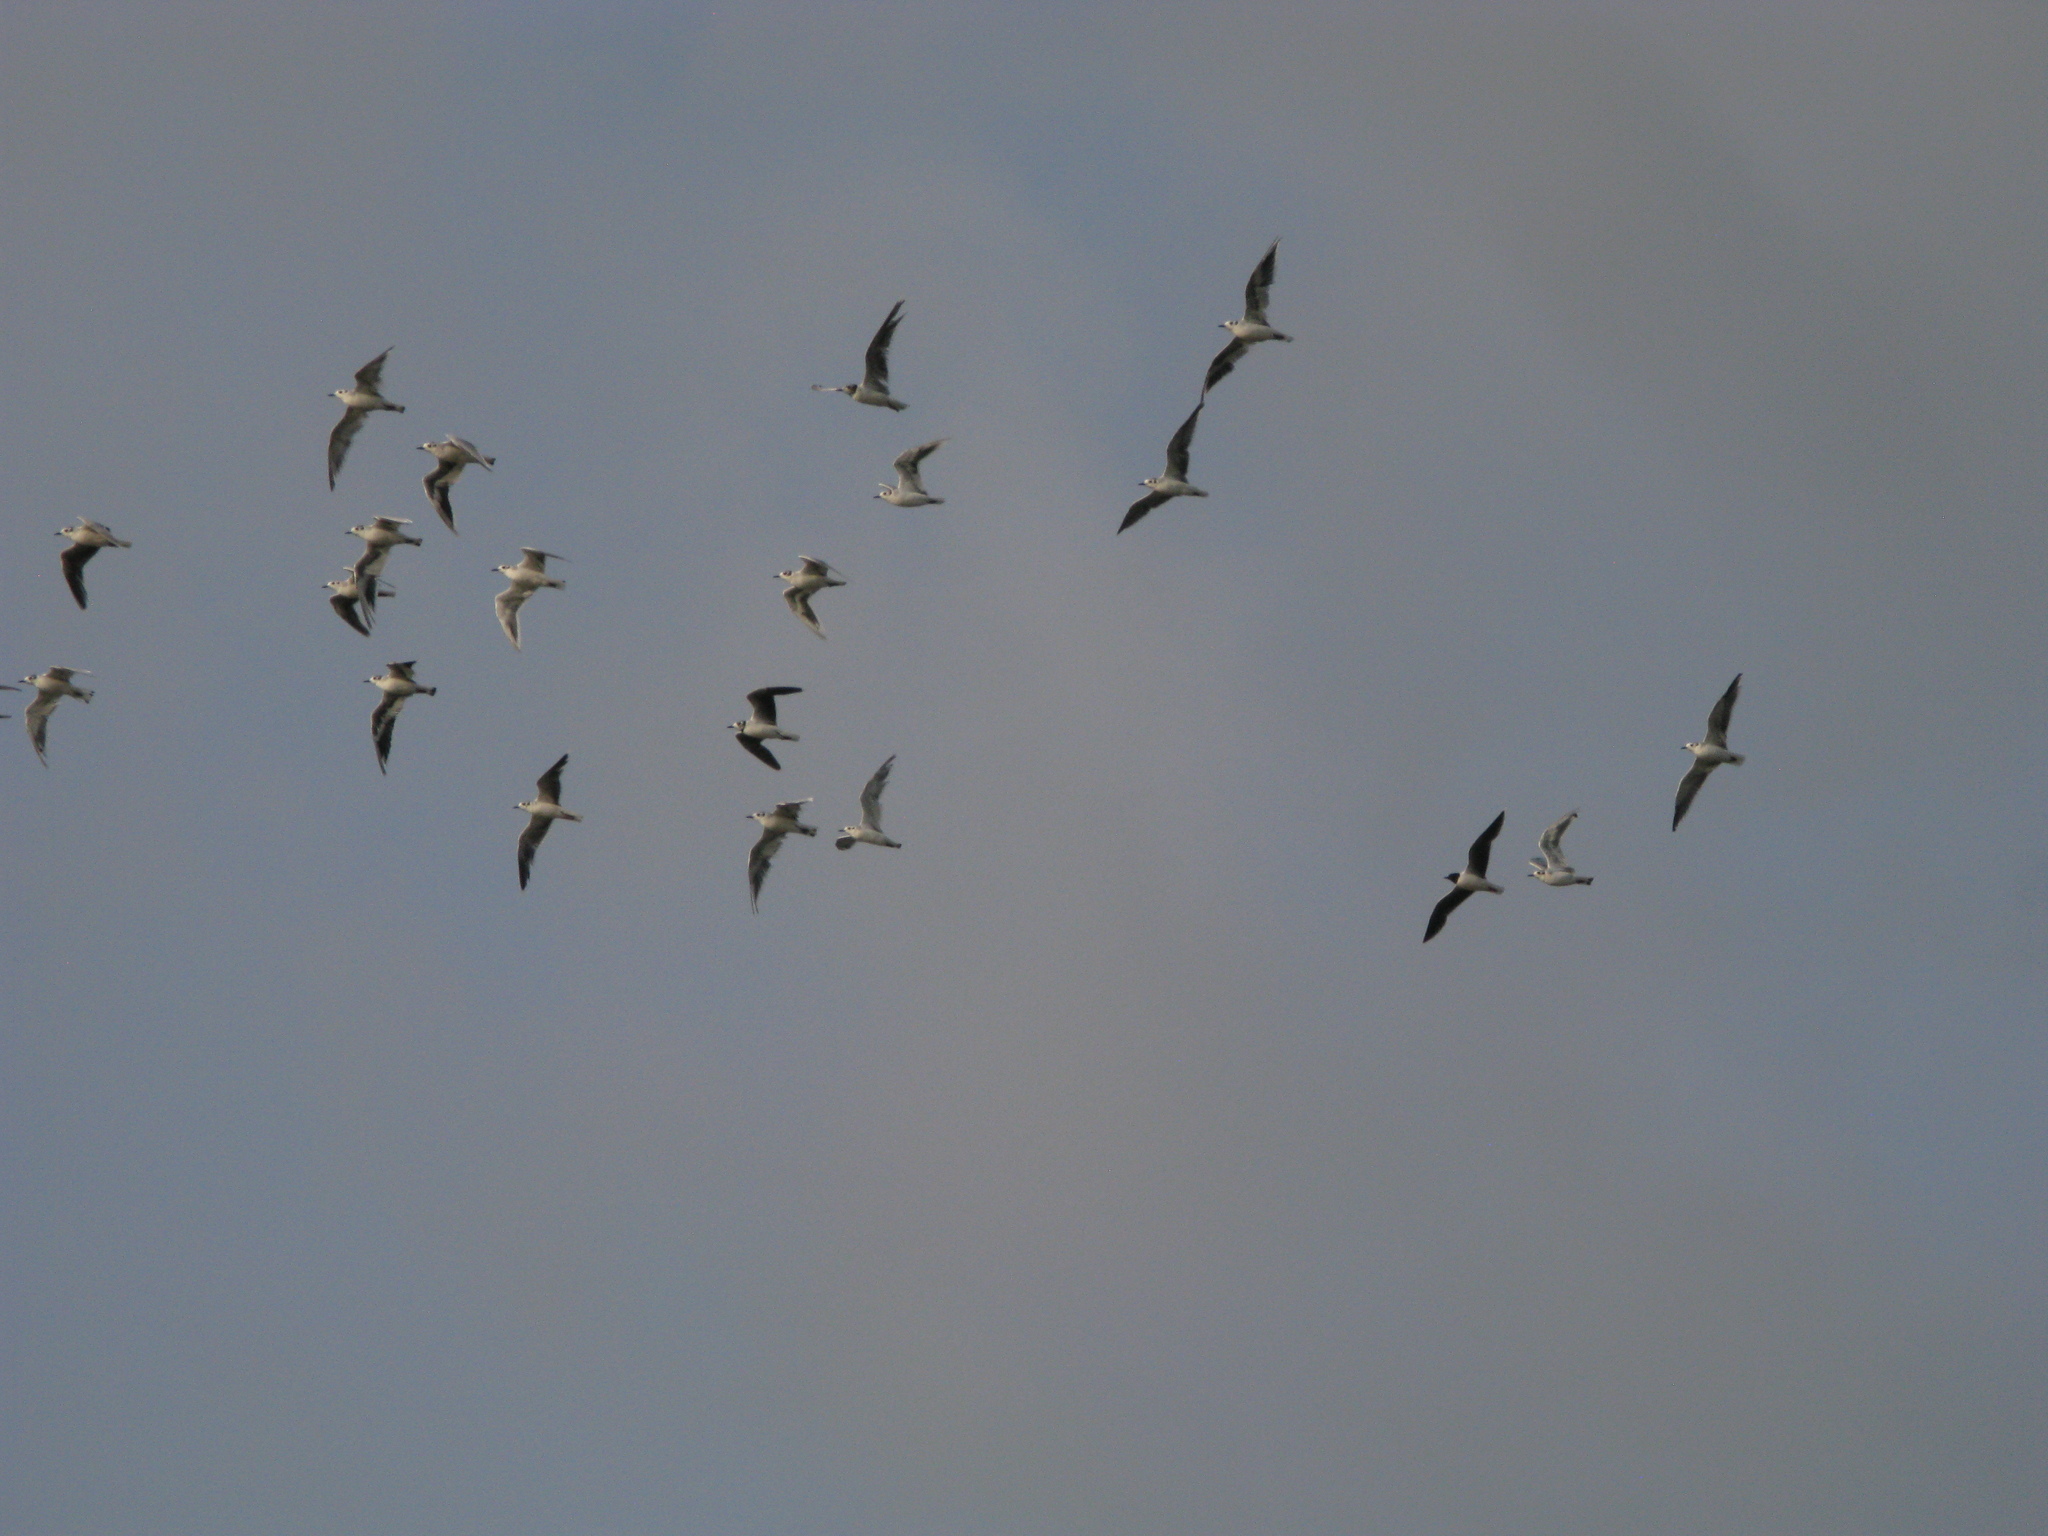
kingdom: Animalia
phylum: Chordata
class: Aves
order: Charadriiformes
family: Laridae
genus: Hydrocoloeus
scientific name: Hydrocoloeus minutus
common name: Little gull
